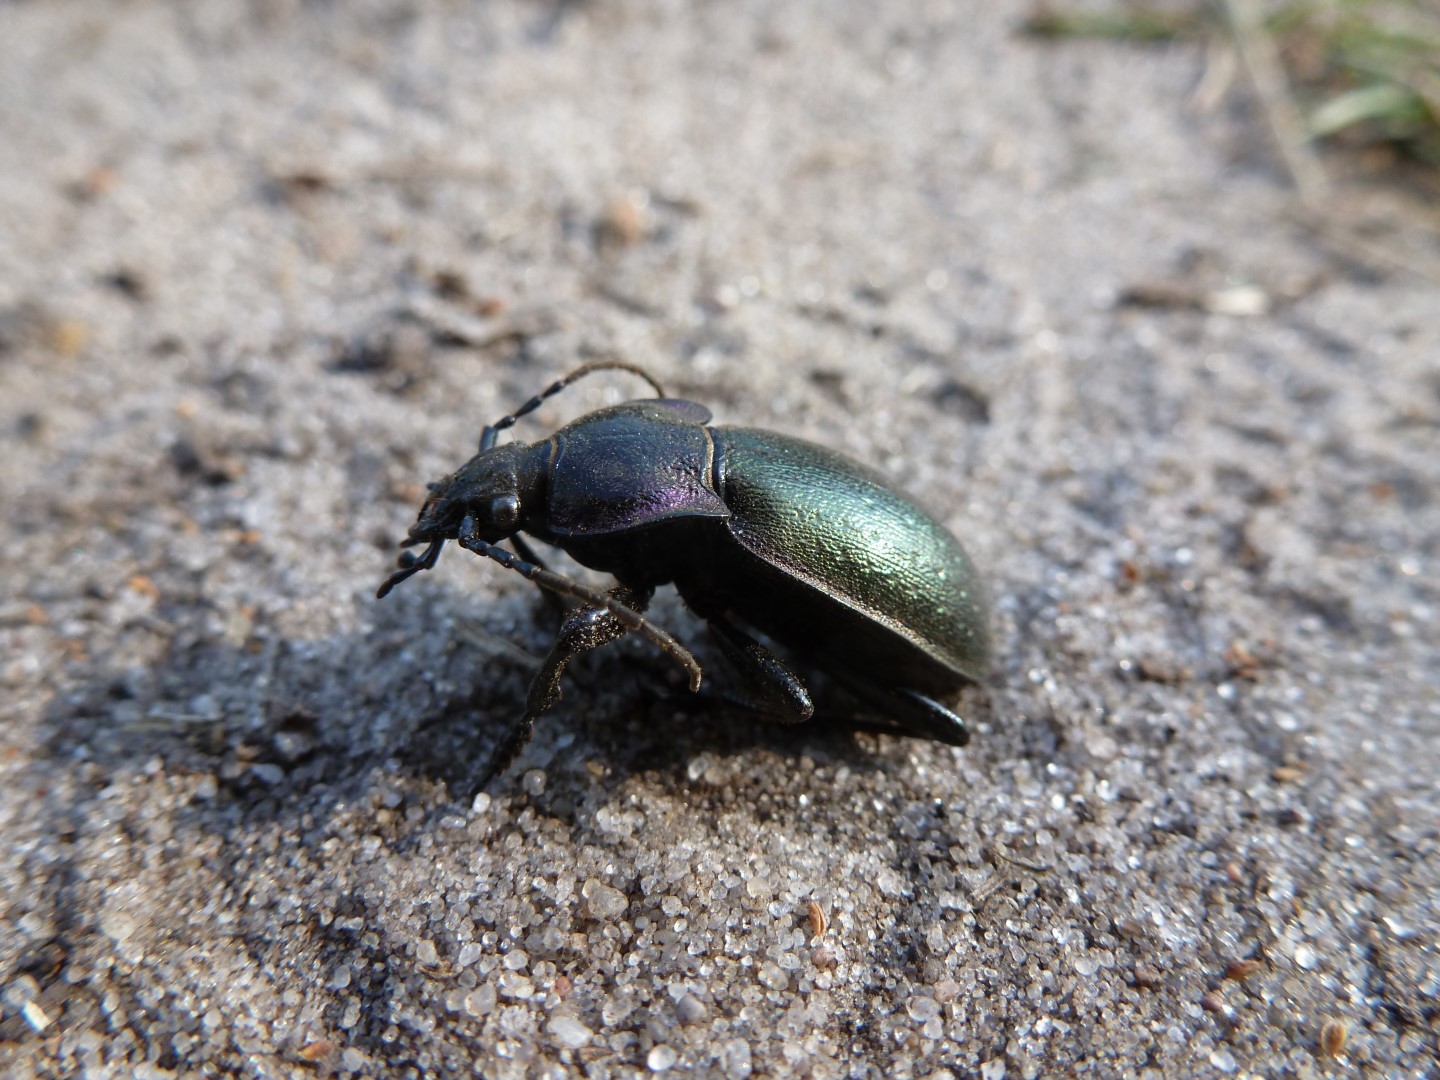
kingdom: Animalia
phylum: Arthropoda
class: Insecta
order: Coleoptera
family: Carabidae
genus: Carabus
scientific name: Carabus nemoralis
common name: European ground beetle
